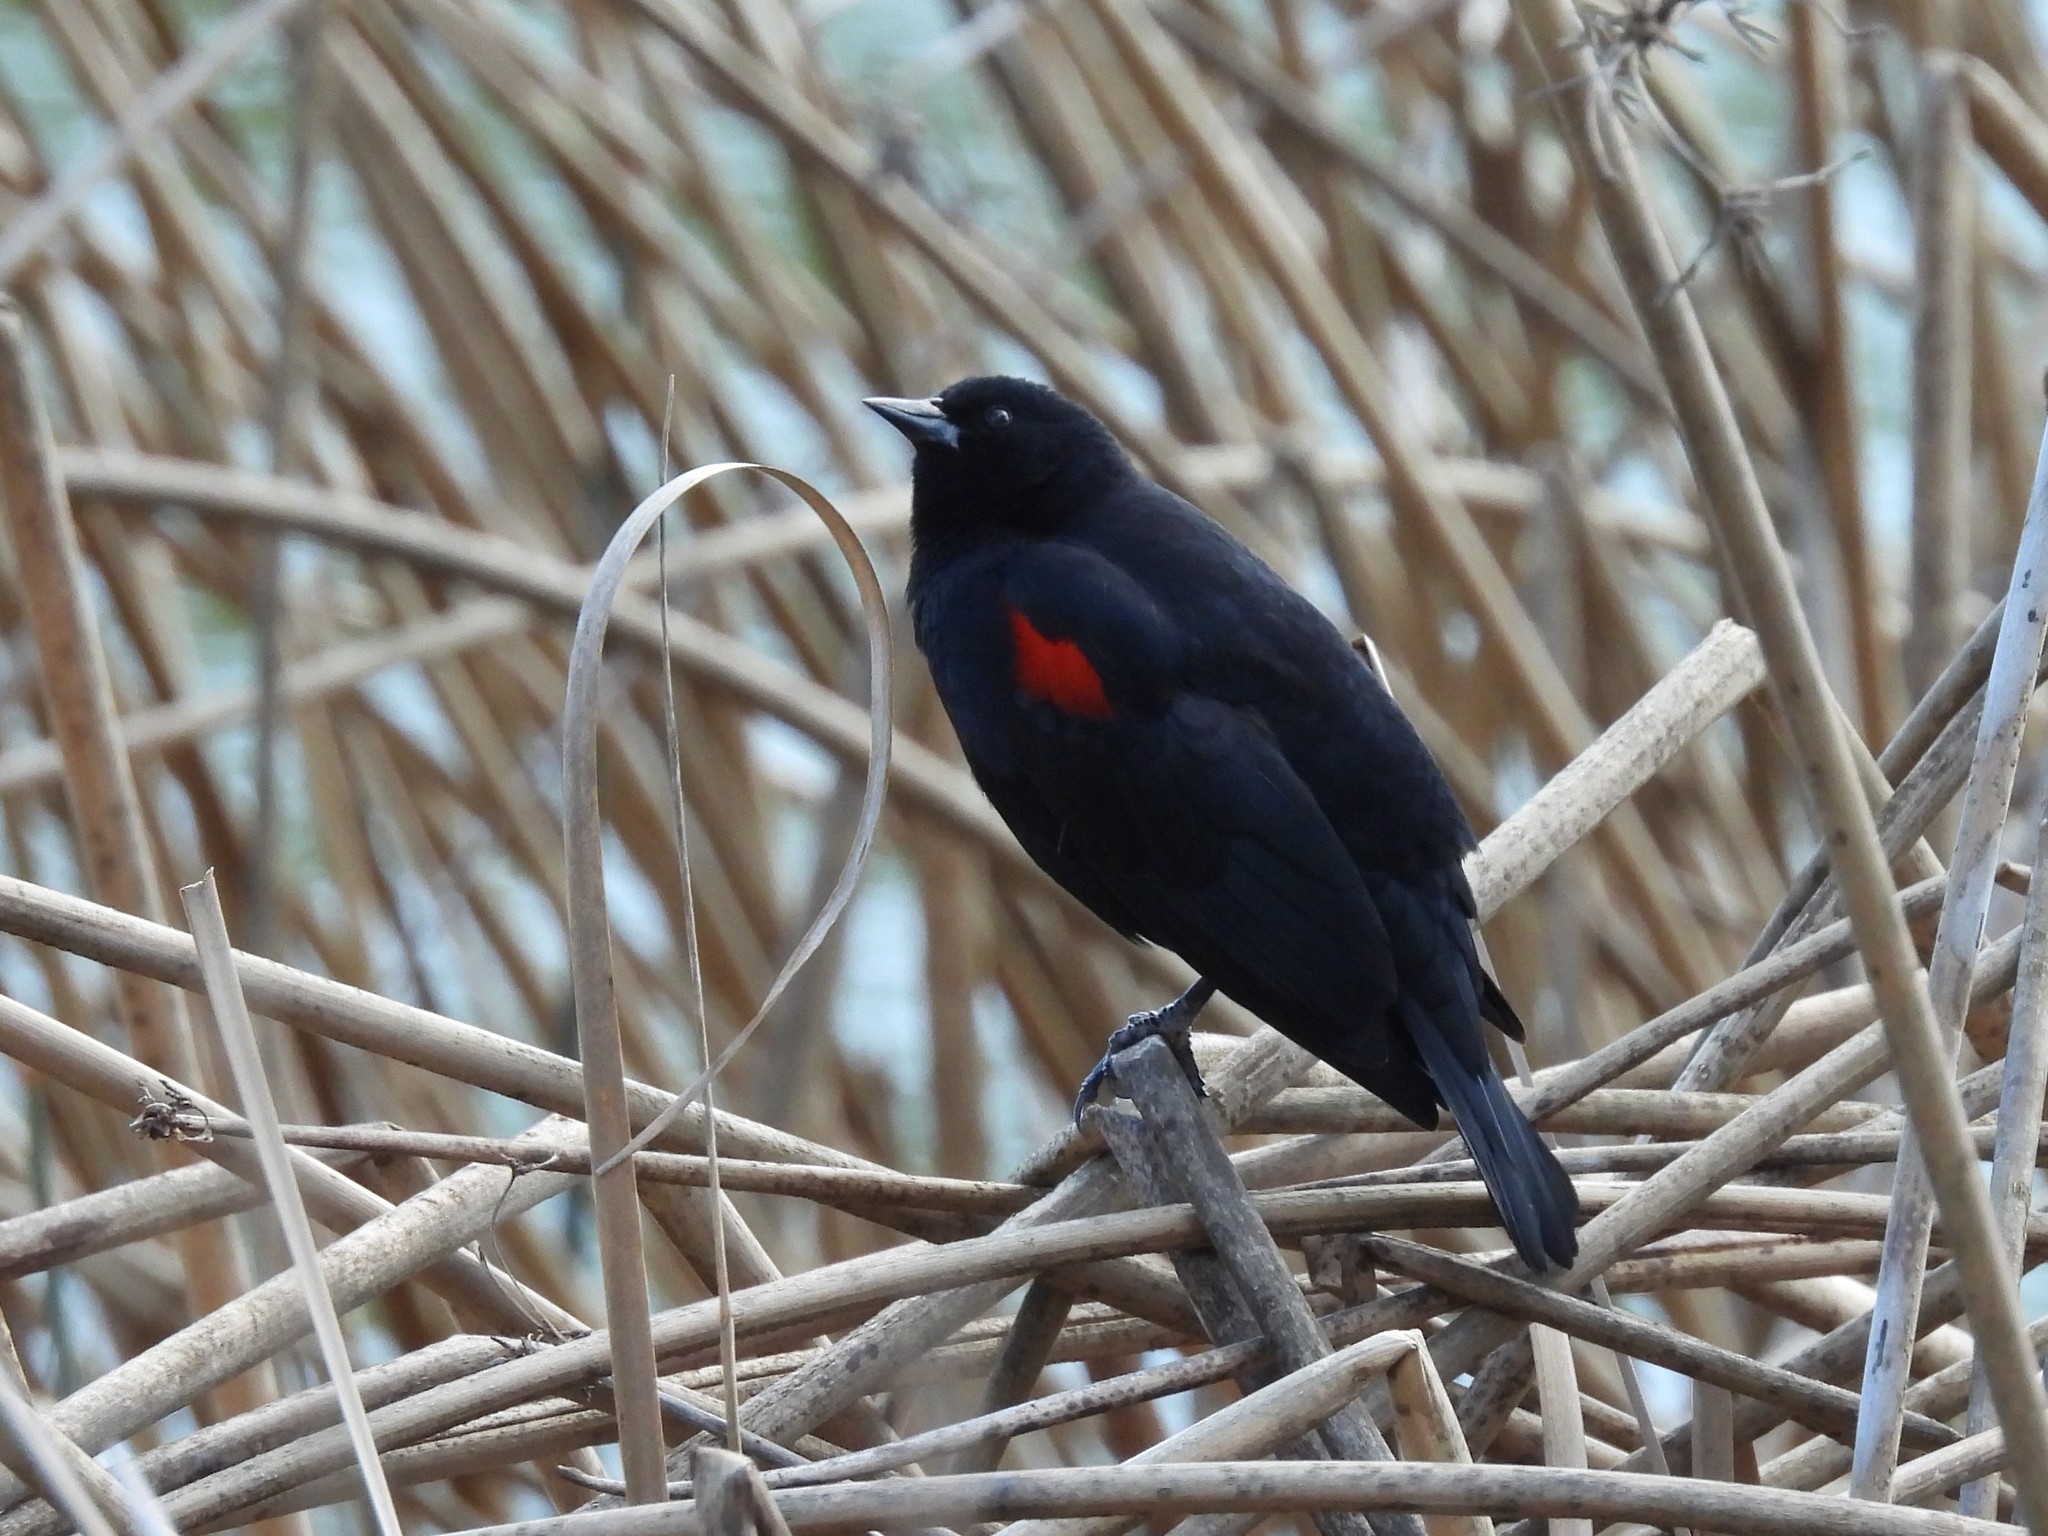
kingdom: Animalia
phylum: Chordata
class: Aves
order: Passeriformes
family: Icteridae
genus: Agelaius
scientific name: Agelaius phoeniceus
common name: Red-winged blackbird
